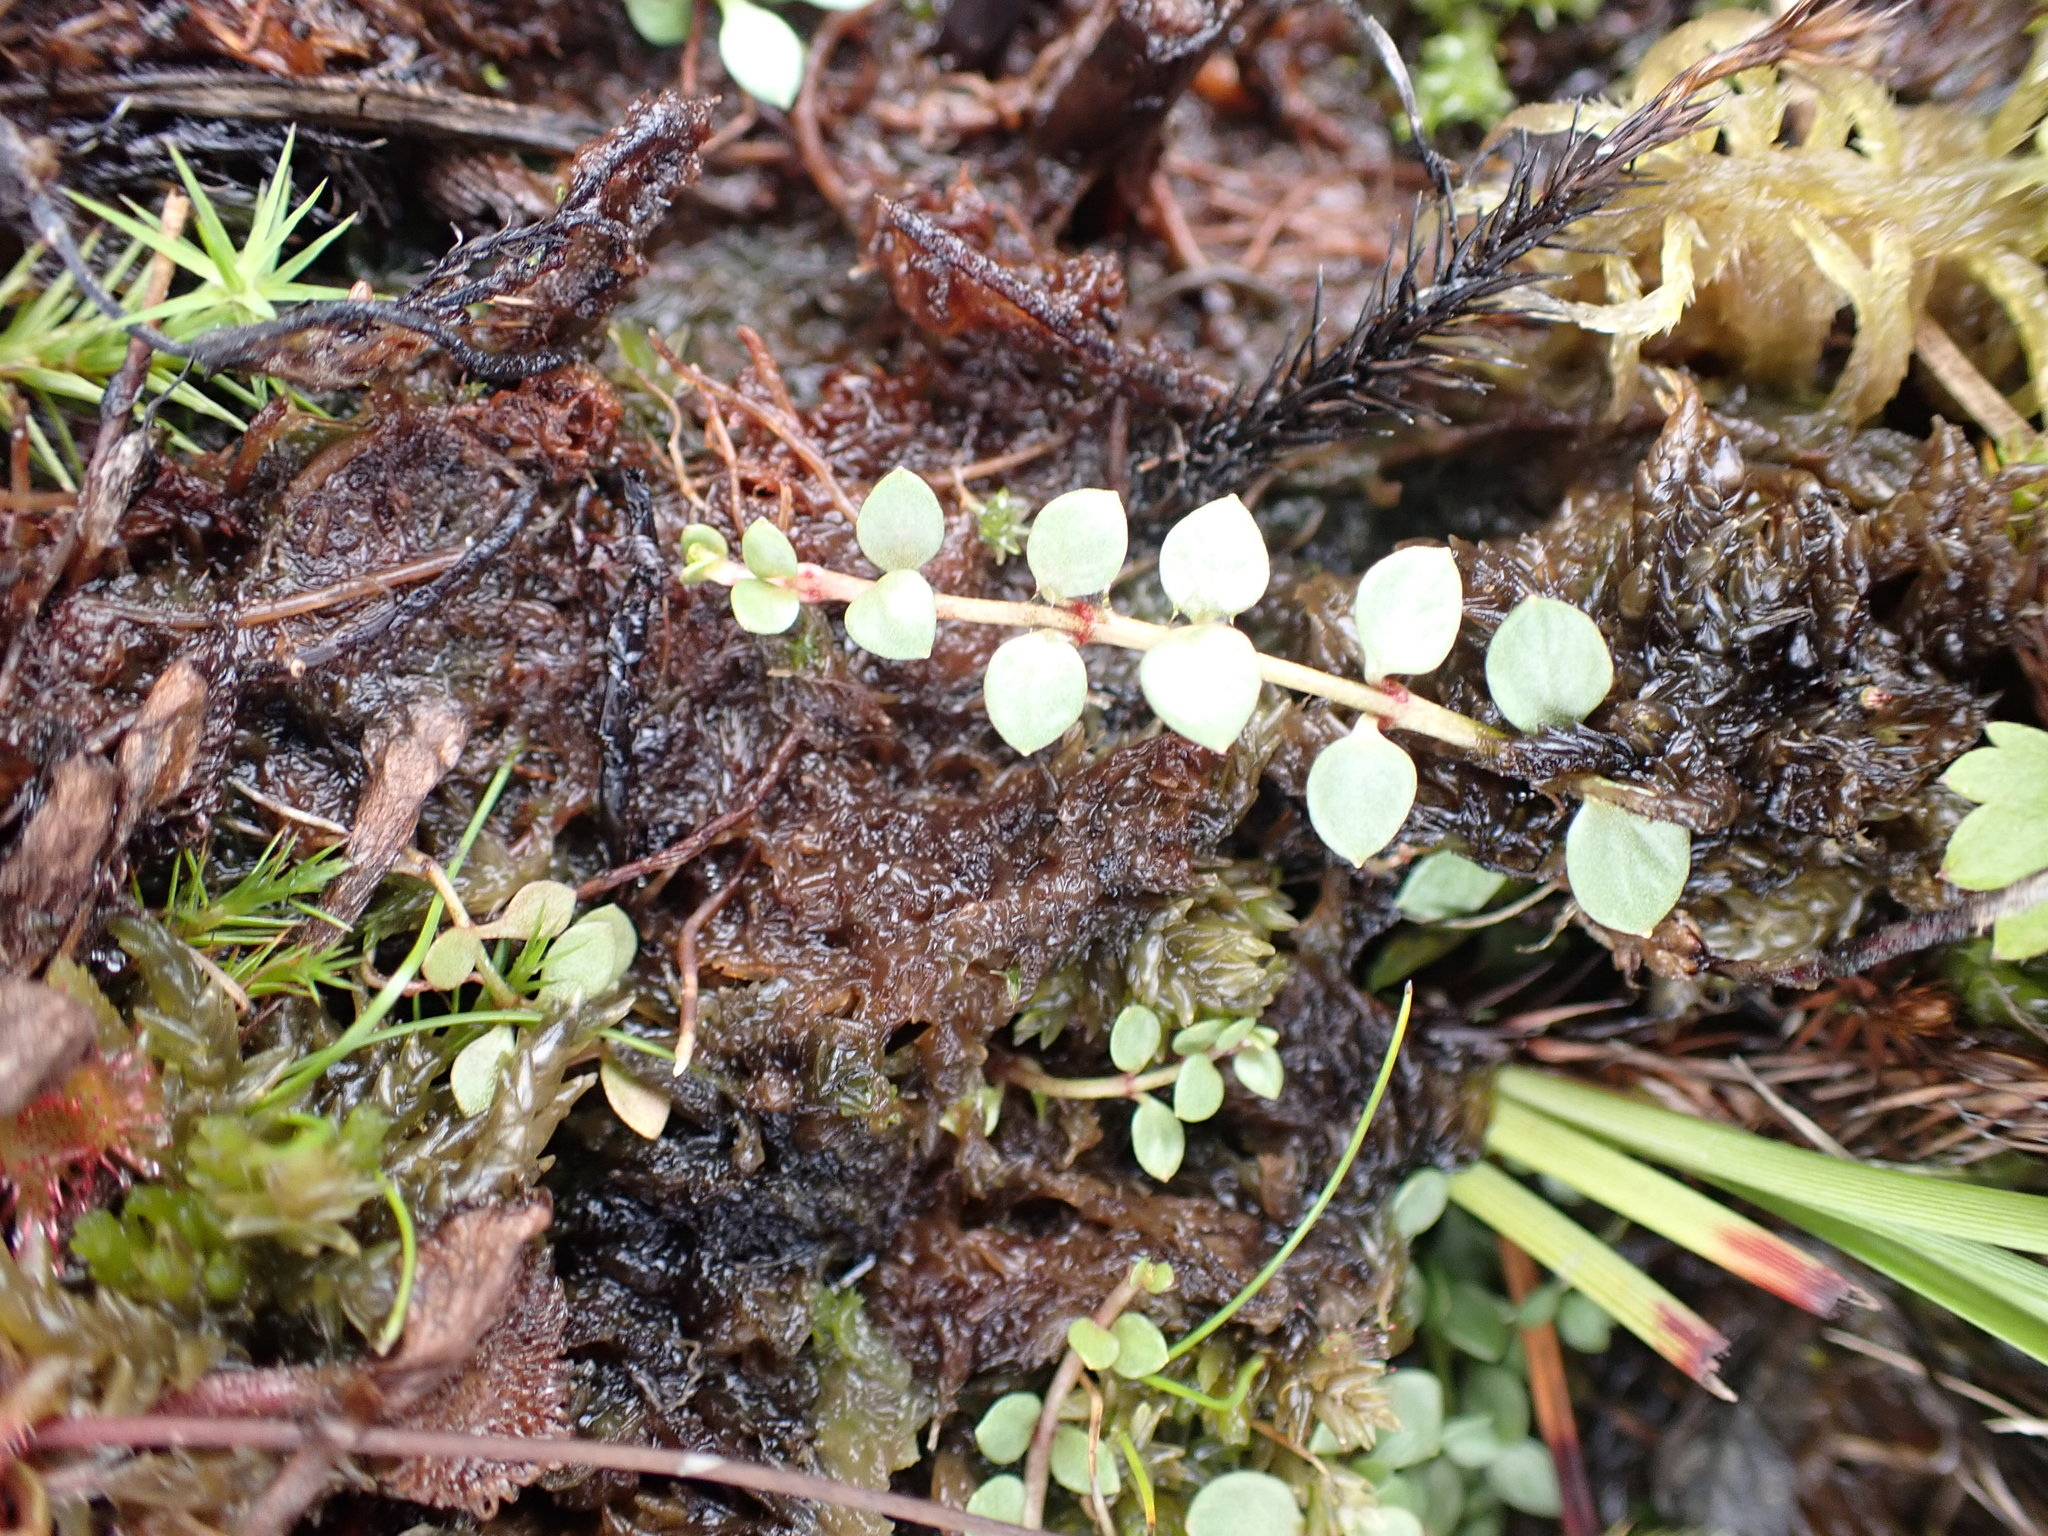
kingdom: Plantae
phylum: Tracheophyta
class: Magnoliopsida
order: Ericales
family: Primulaceae
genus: Lysimachia
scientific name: Lysimachia tenella
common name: European bog pimpernel
